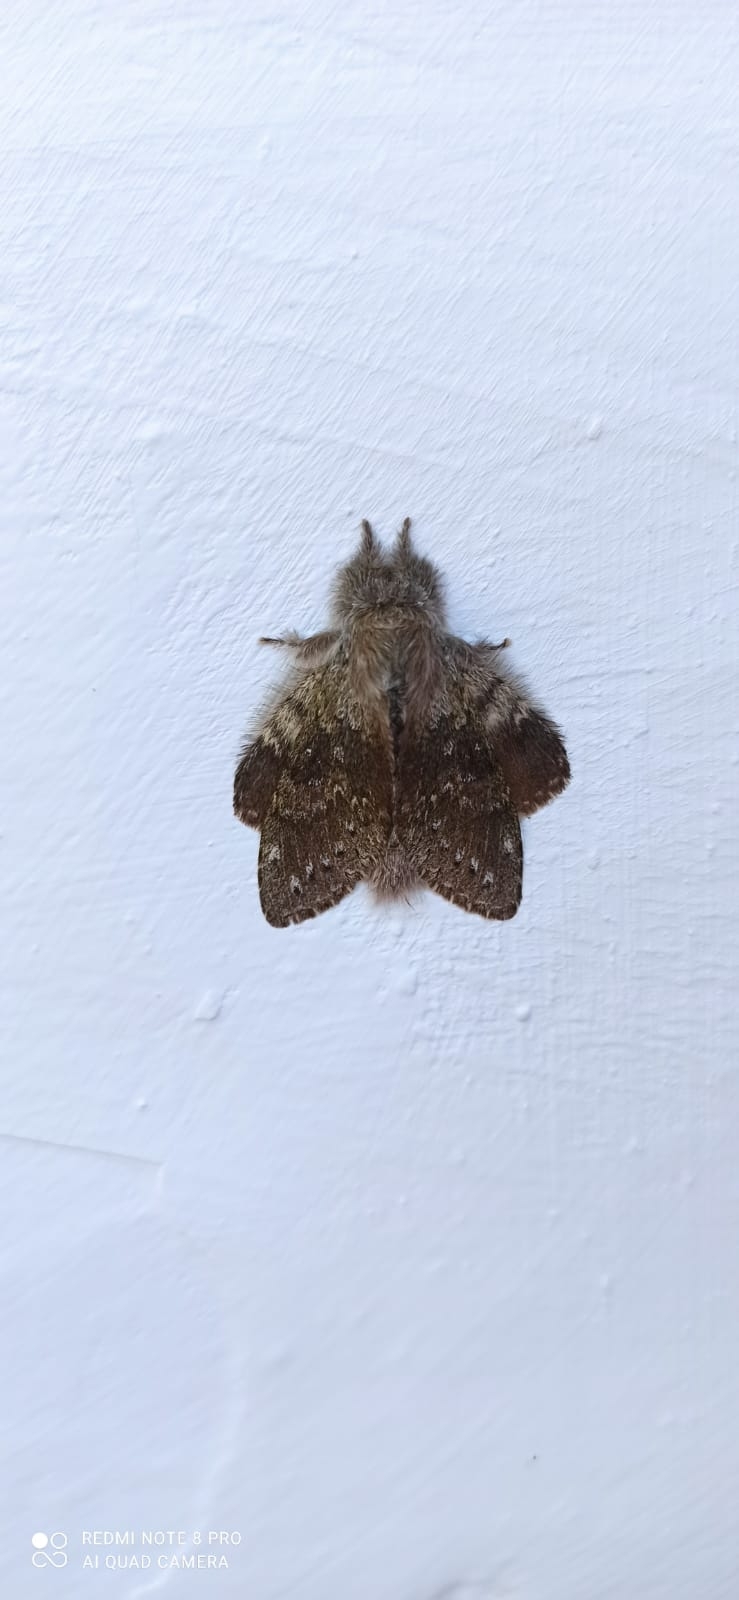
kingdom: Animalia
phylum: Arthropoda
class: Insecta
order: Lepidoptera
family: Notodontidae
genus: Stauropus
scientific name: Stauropus fagi
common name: Lobster moth
